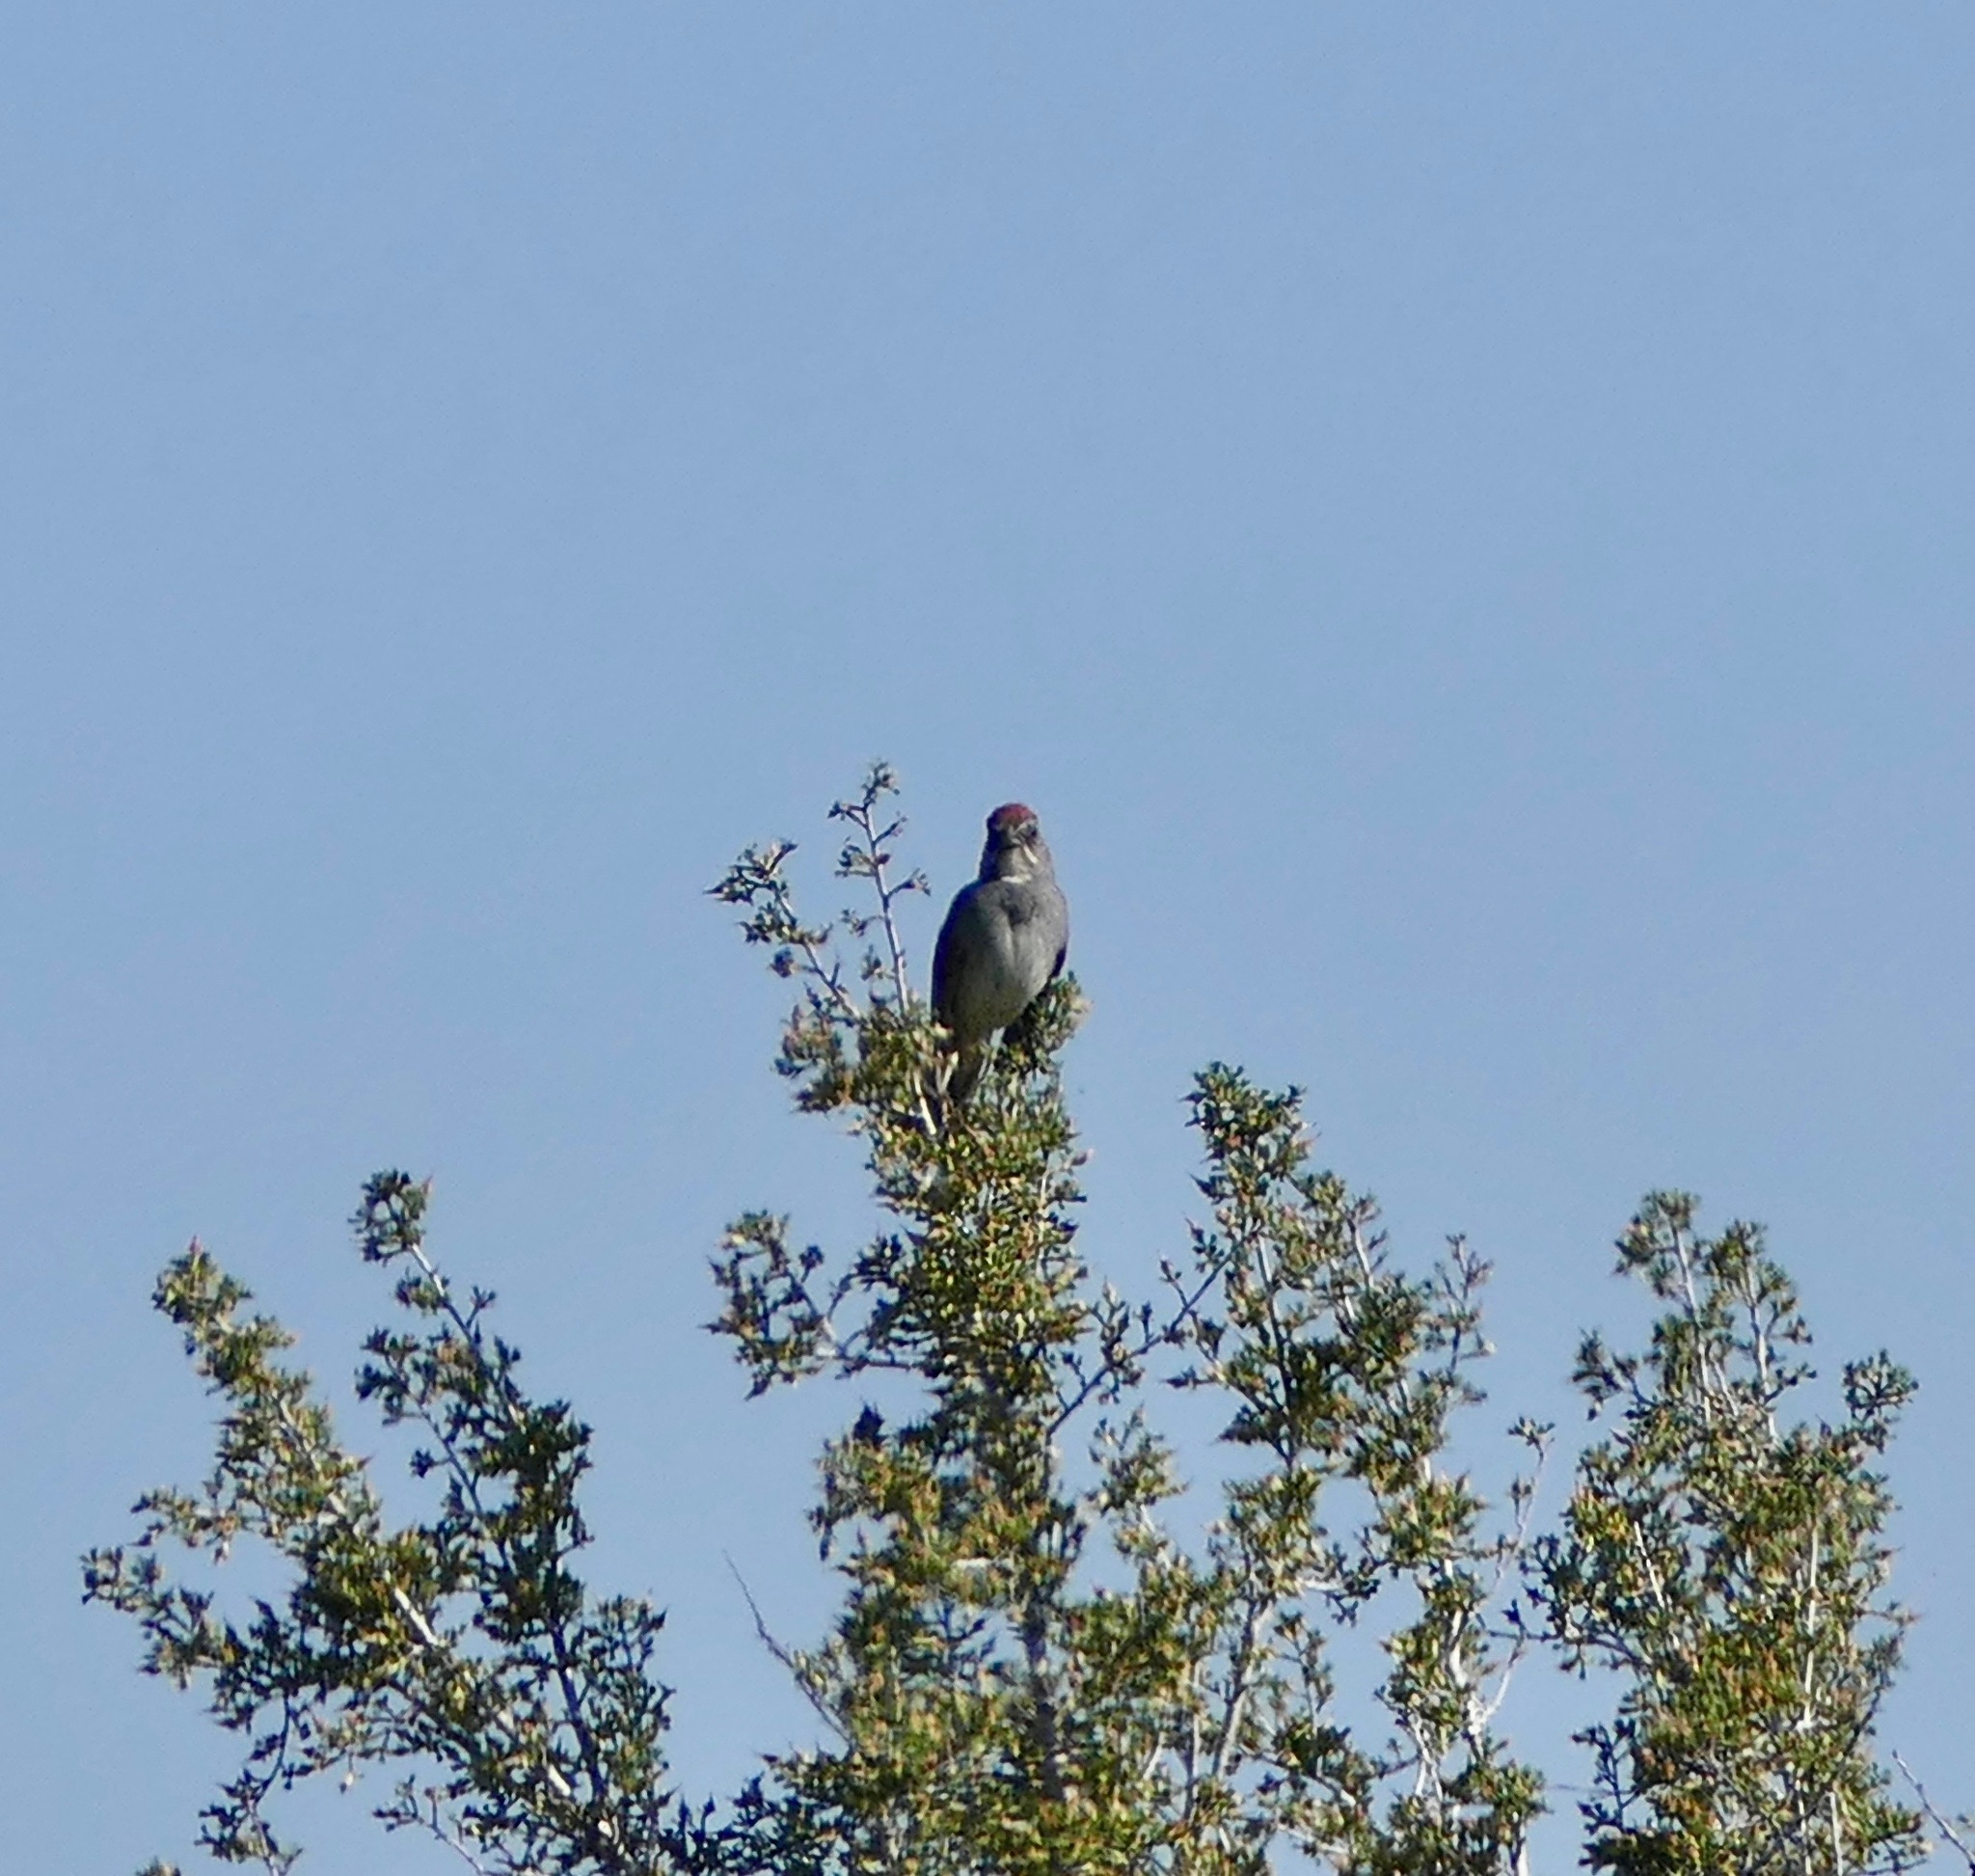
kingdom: Animalia
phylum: Chordata
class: Aves
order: Passeriformes
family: Passerellidae
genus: Pipilo
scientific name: Pipilo chlorurus
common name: Green-tailed towhee
